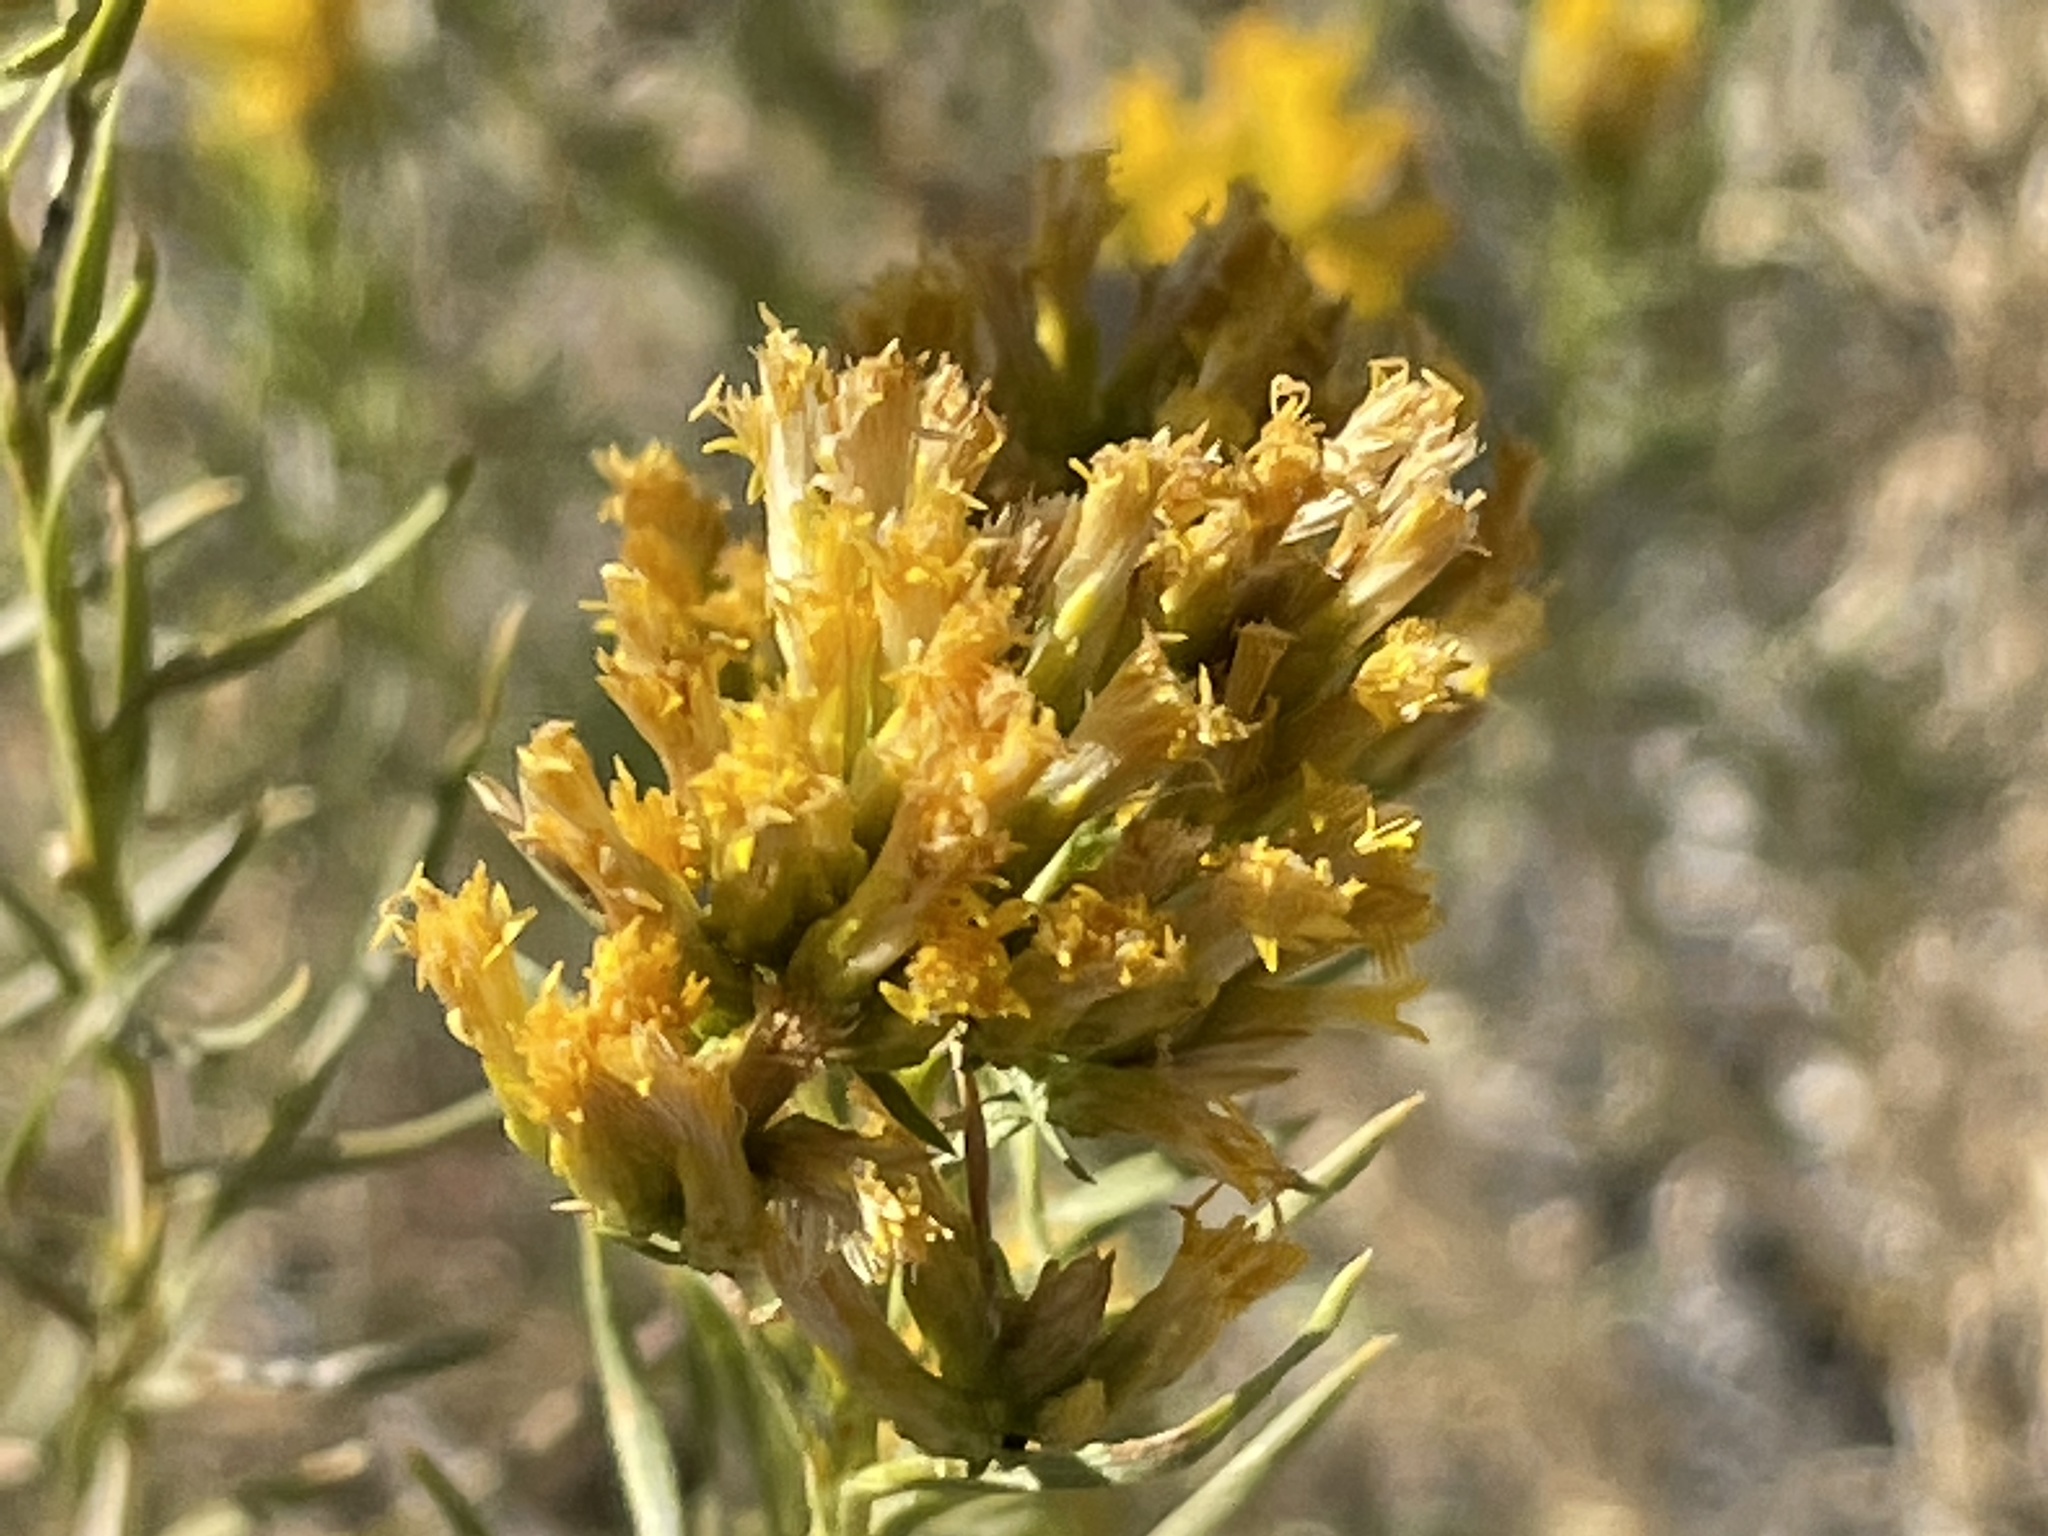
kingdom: Plantae
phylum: Tracheophyta
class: Magnoliopsida
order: Asterales
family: Asteraceae
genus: Chrysothamnus
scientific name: Chrysothamnus viscidiflorus
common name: Yellow rabbitbrush
